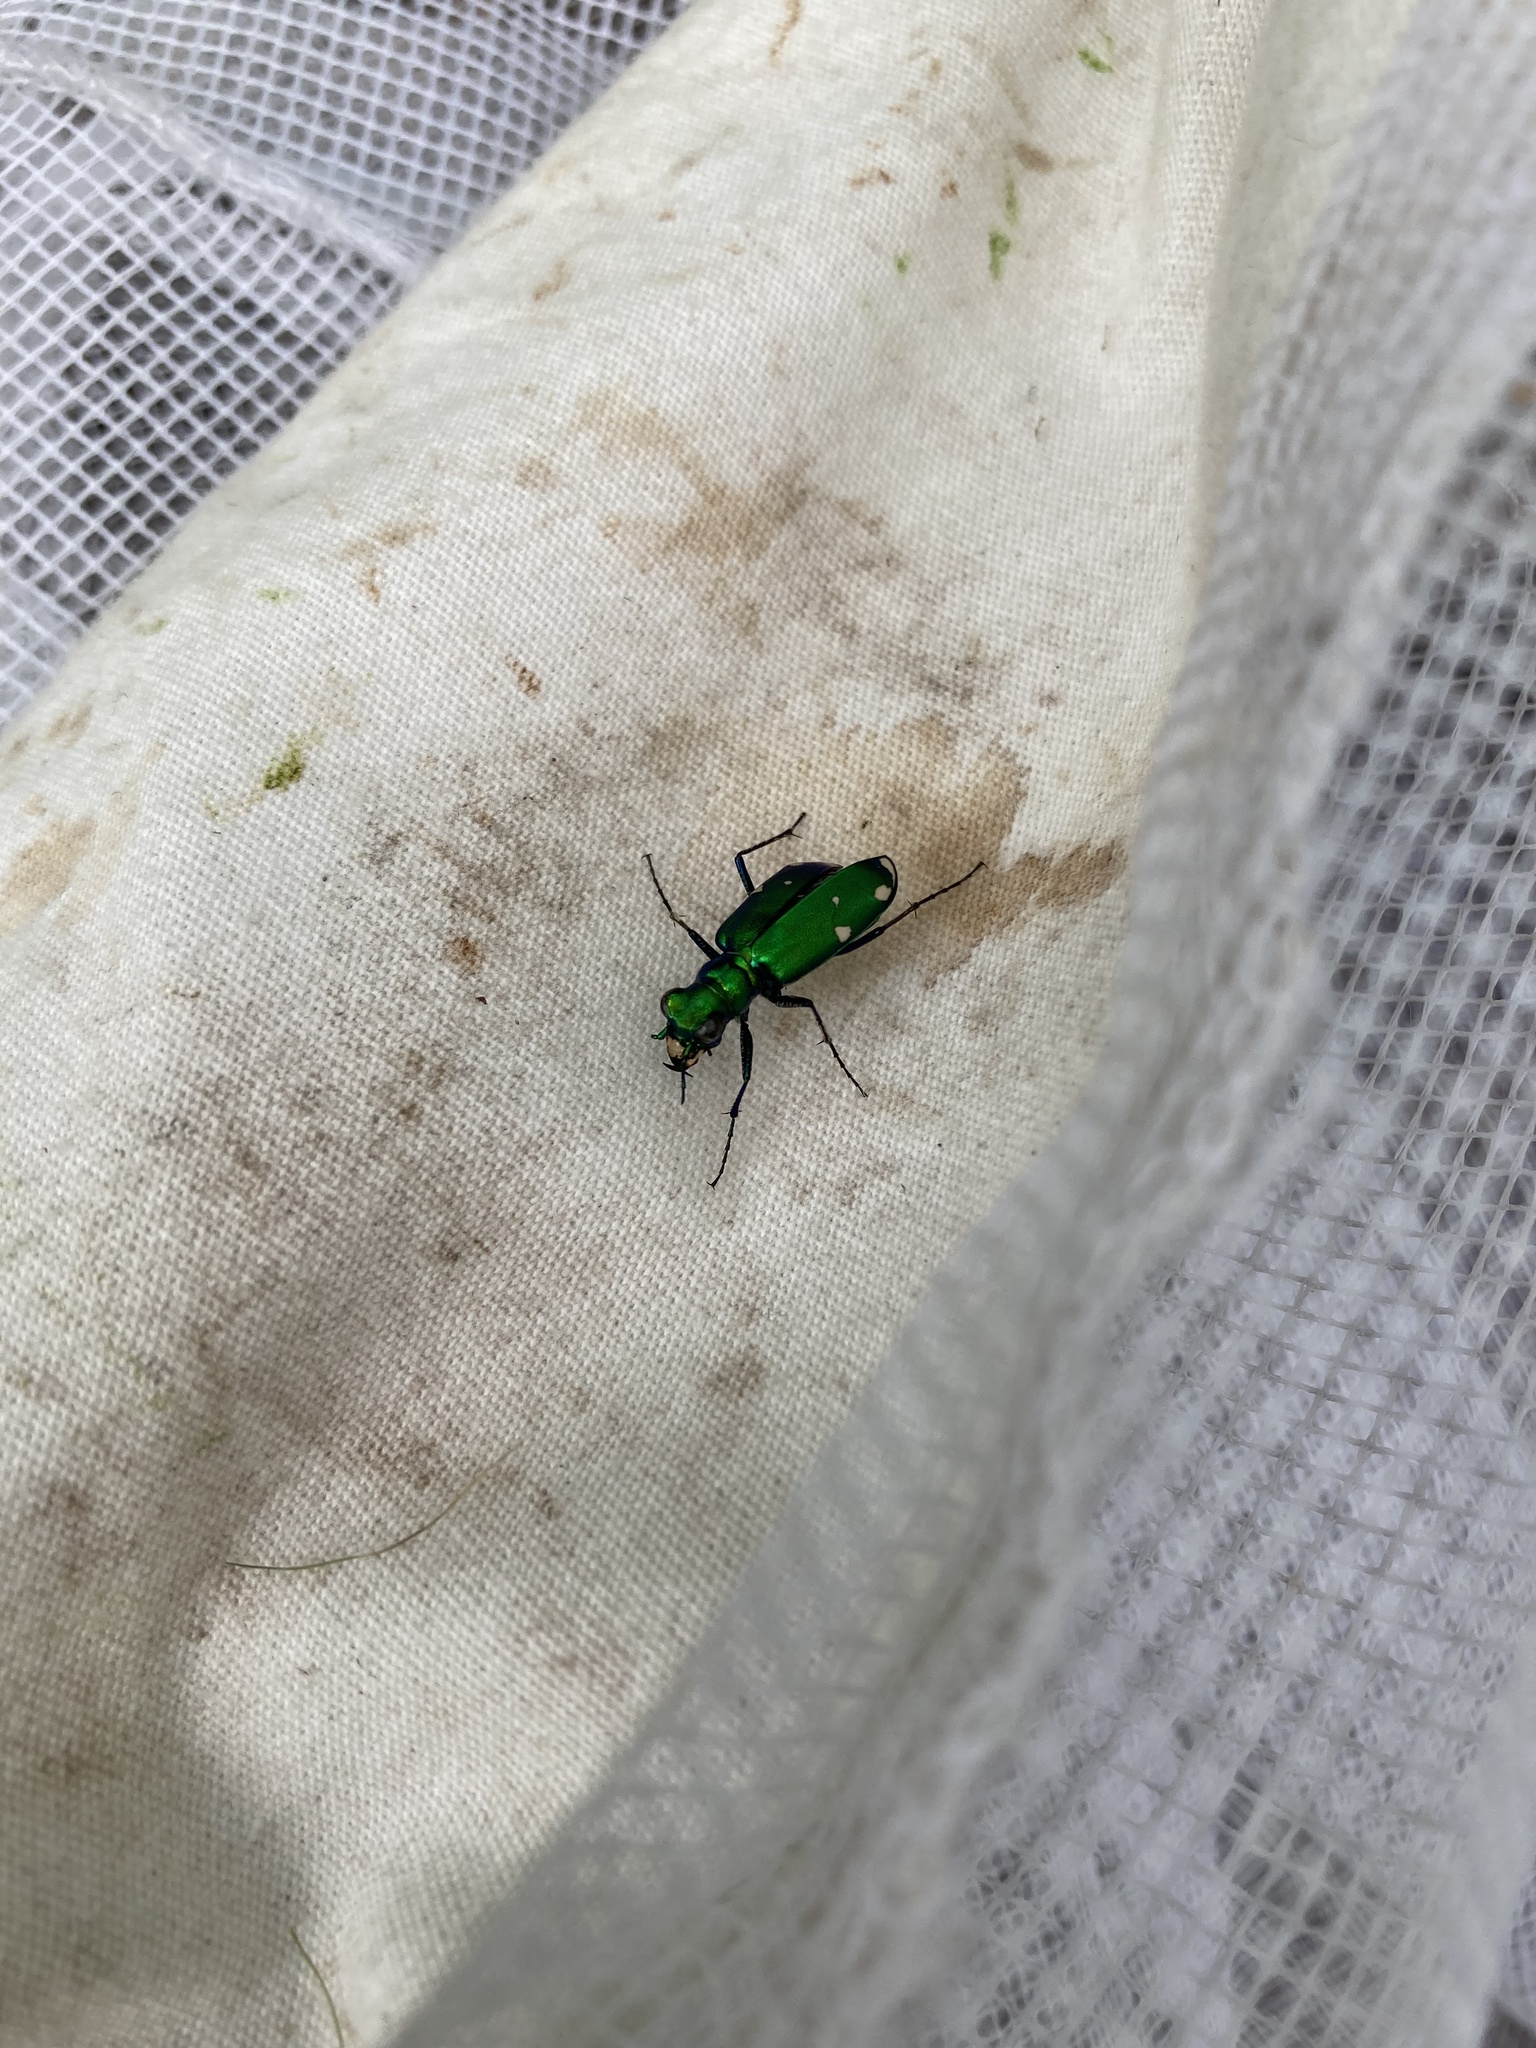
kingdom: Animalia
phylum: Arthropoda
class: Insecta
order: Coleoptera
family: Carabidae
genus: Cicindela
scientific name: Cicindela sexguttata
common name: Six-spotted tiger beetle
